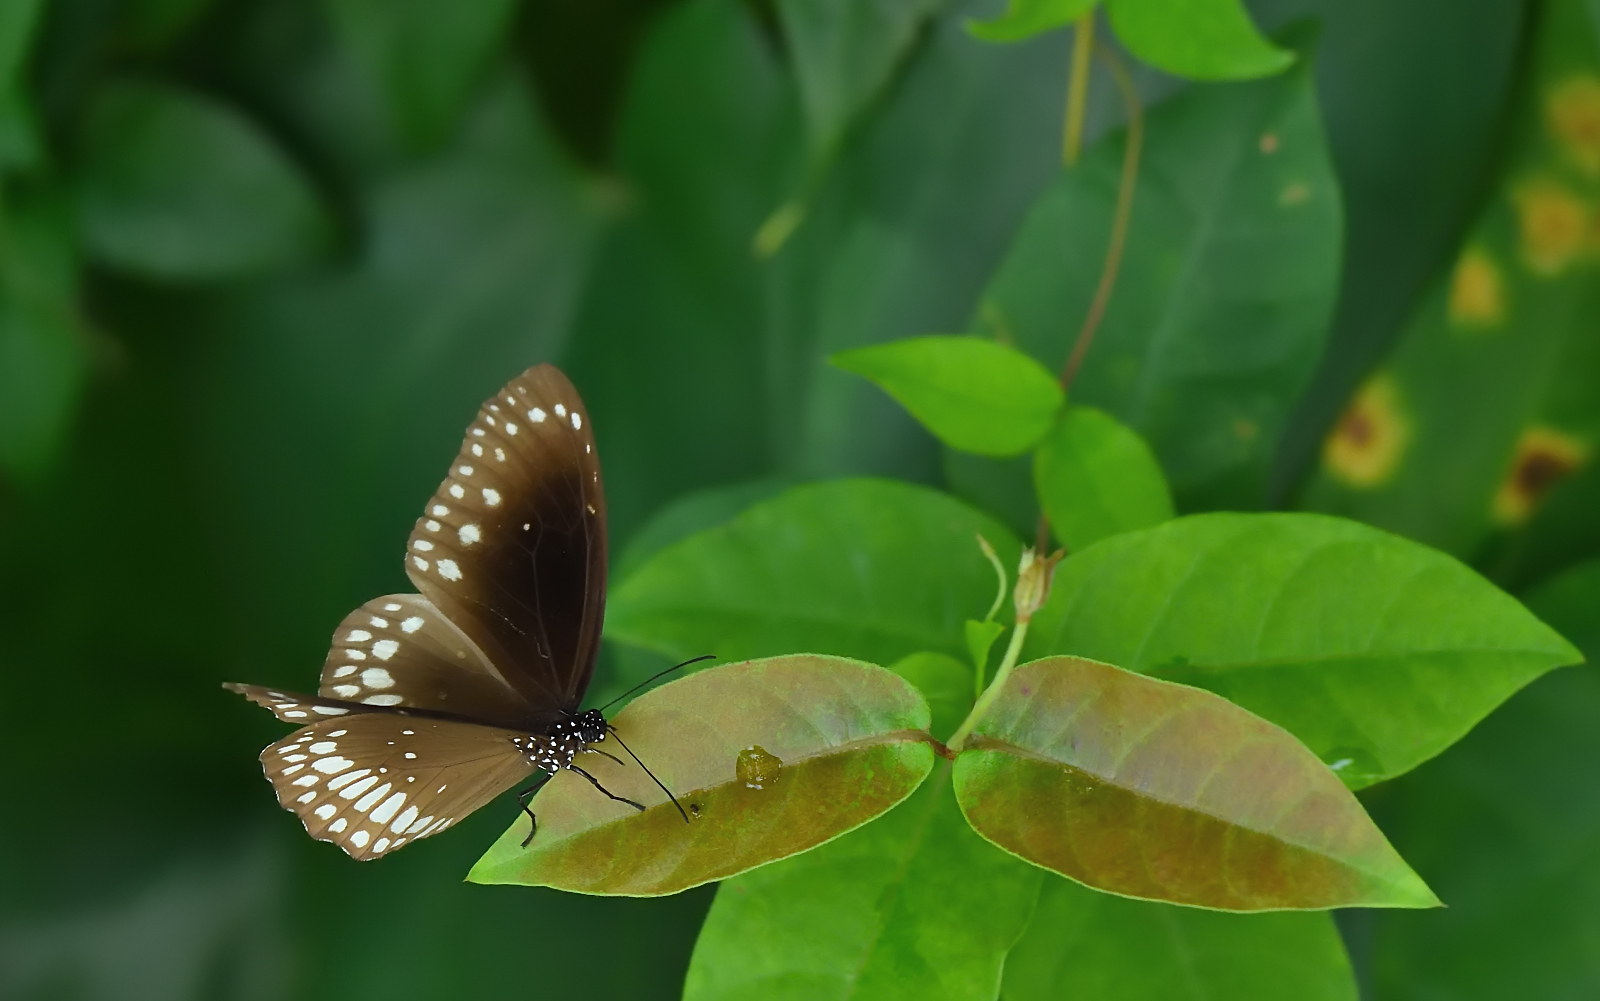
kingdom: Animalia
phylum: Arthropoda
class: Insecta
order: Lepidoptera
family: Nymphalidae
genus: Euploea
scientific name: Euploea core
